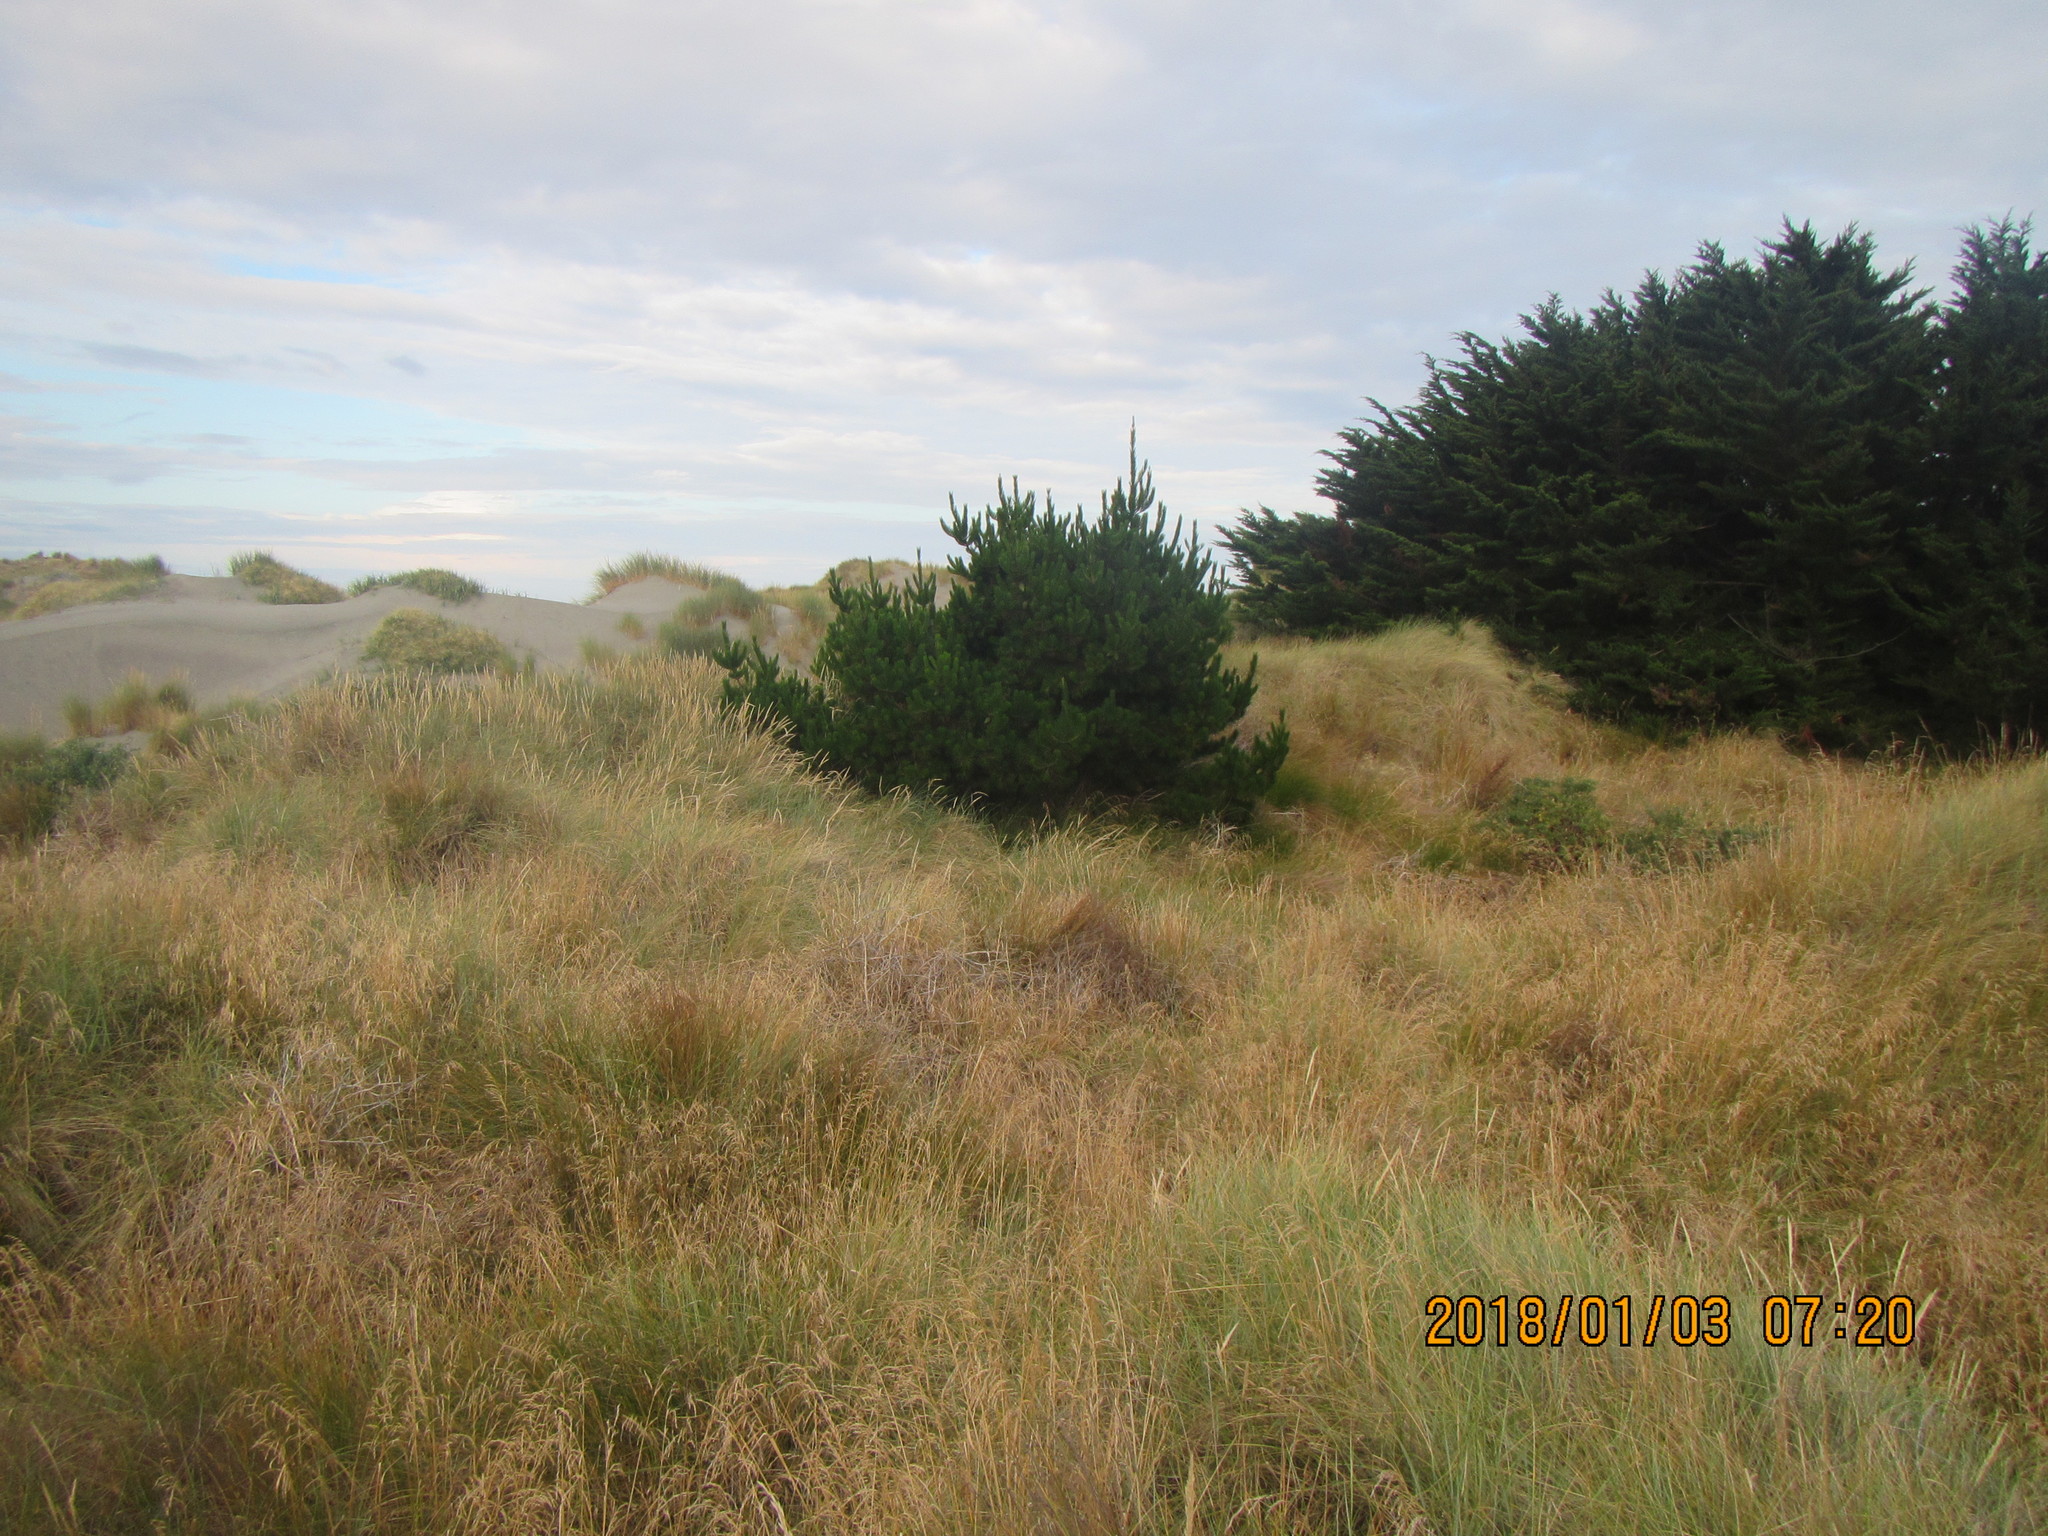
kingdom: Plantae
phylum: Tracheophyta
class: Pinopsida
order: Pinales
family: Pinaceae
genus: Pinus
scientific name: Pinus radiata
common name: Monterey pine
